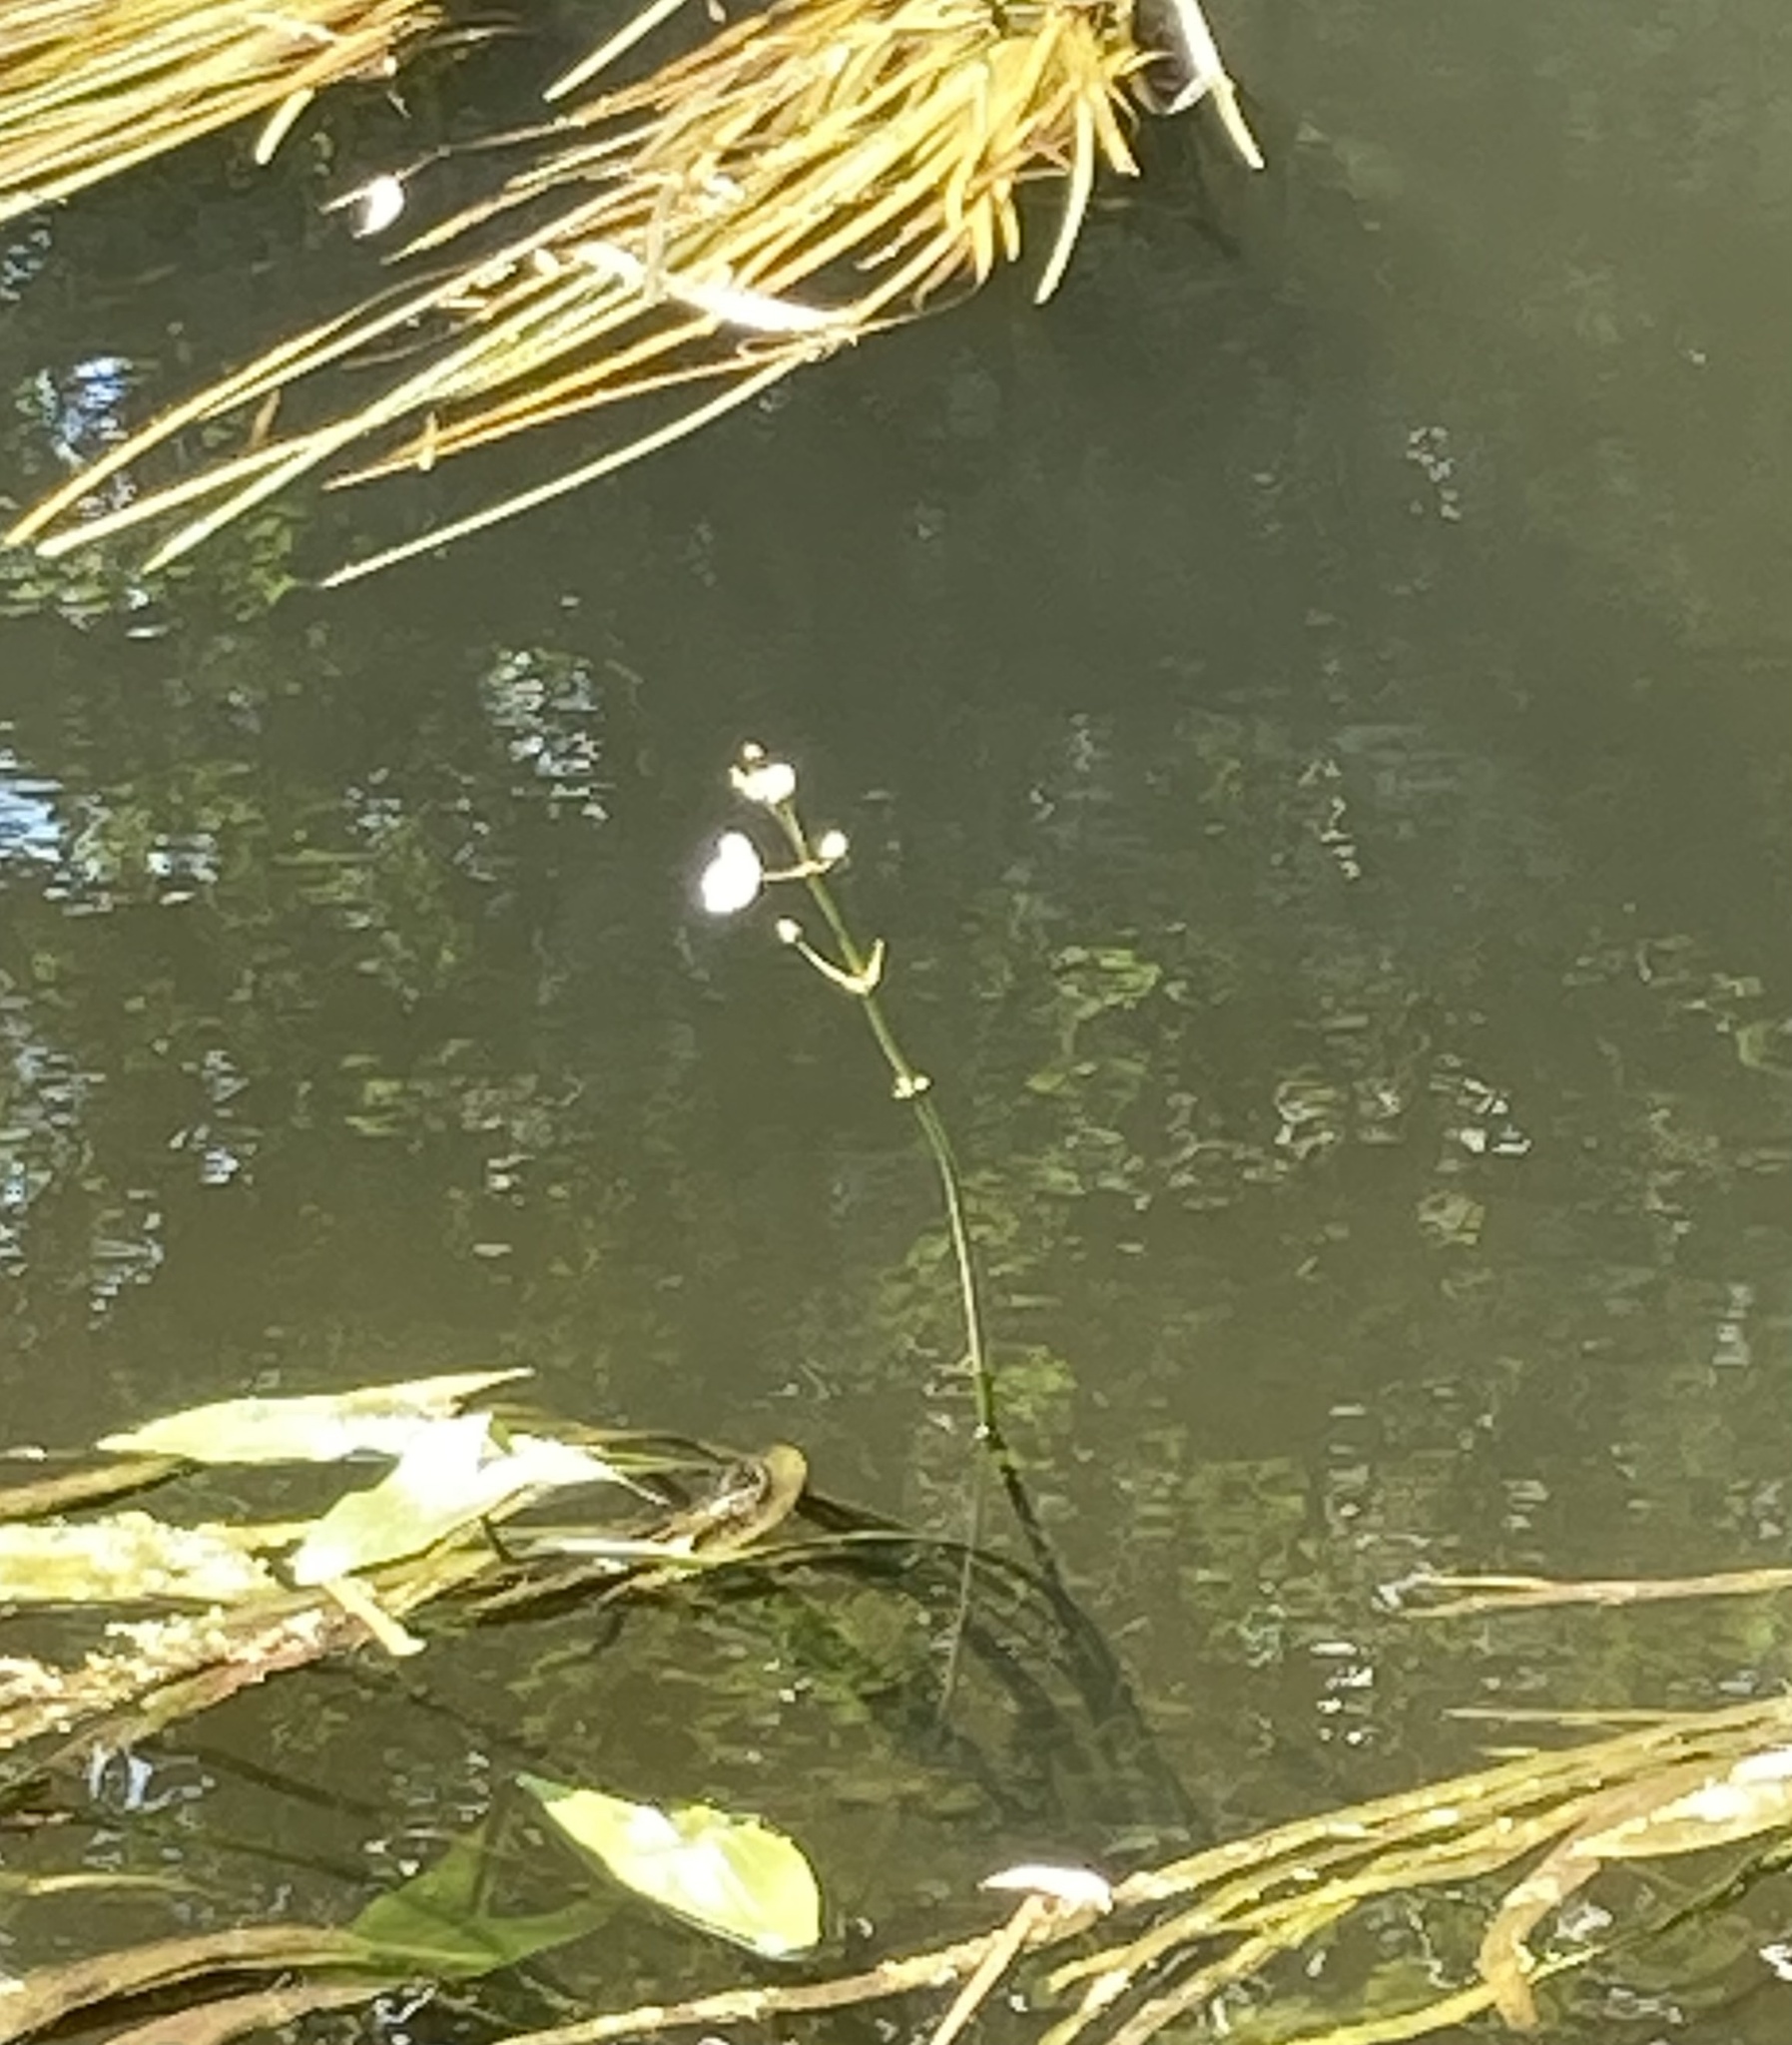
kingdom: Plantae
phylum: Tracheophyta
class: Liliopsida
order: Alismatales
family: Alismataceae
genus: Sagittaria
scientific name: Sagittaria sagittifolia
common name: Arrowhead
